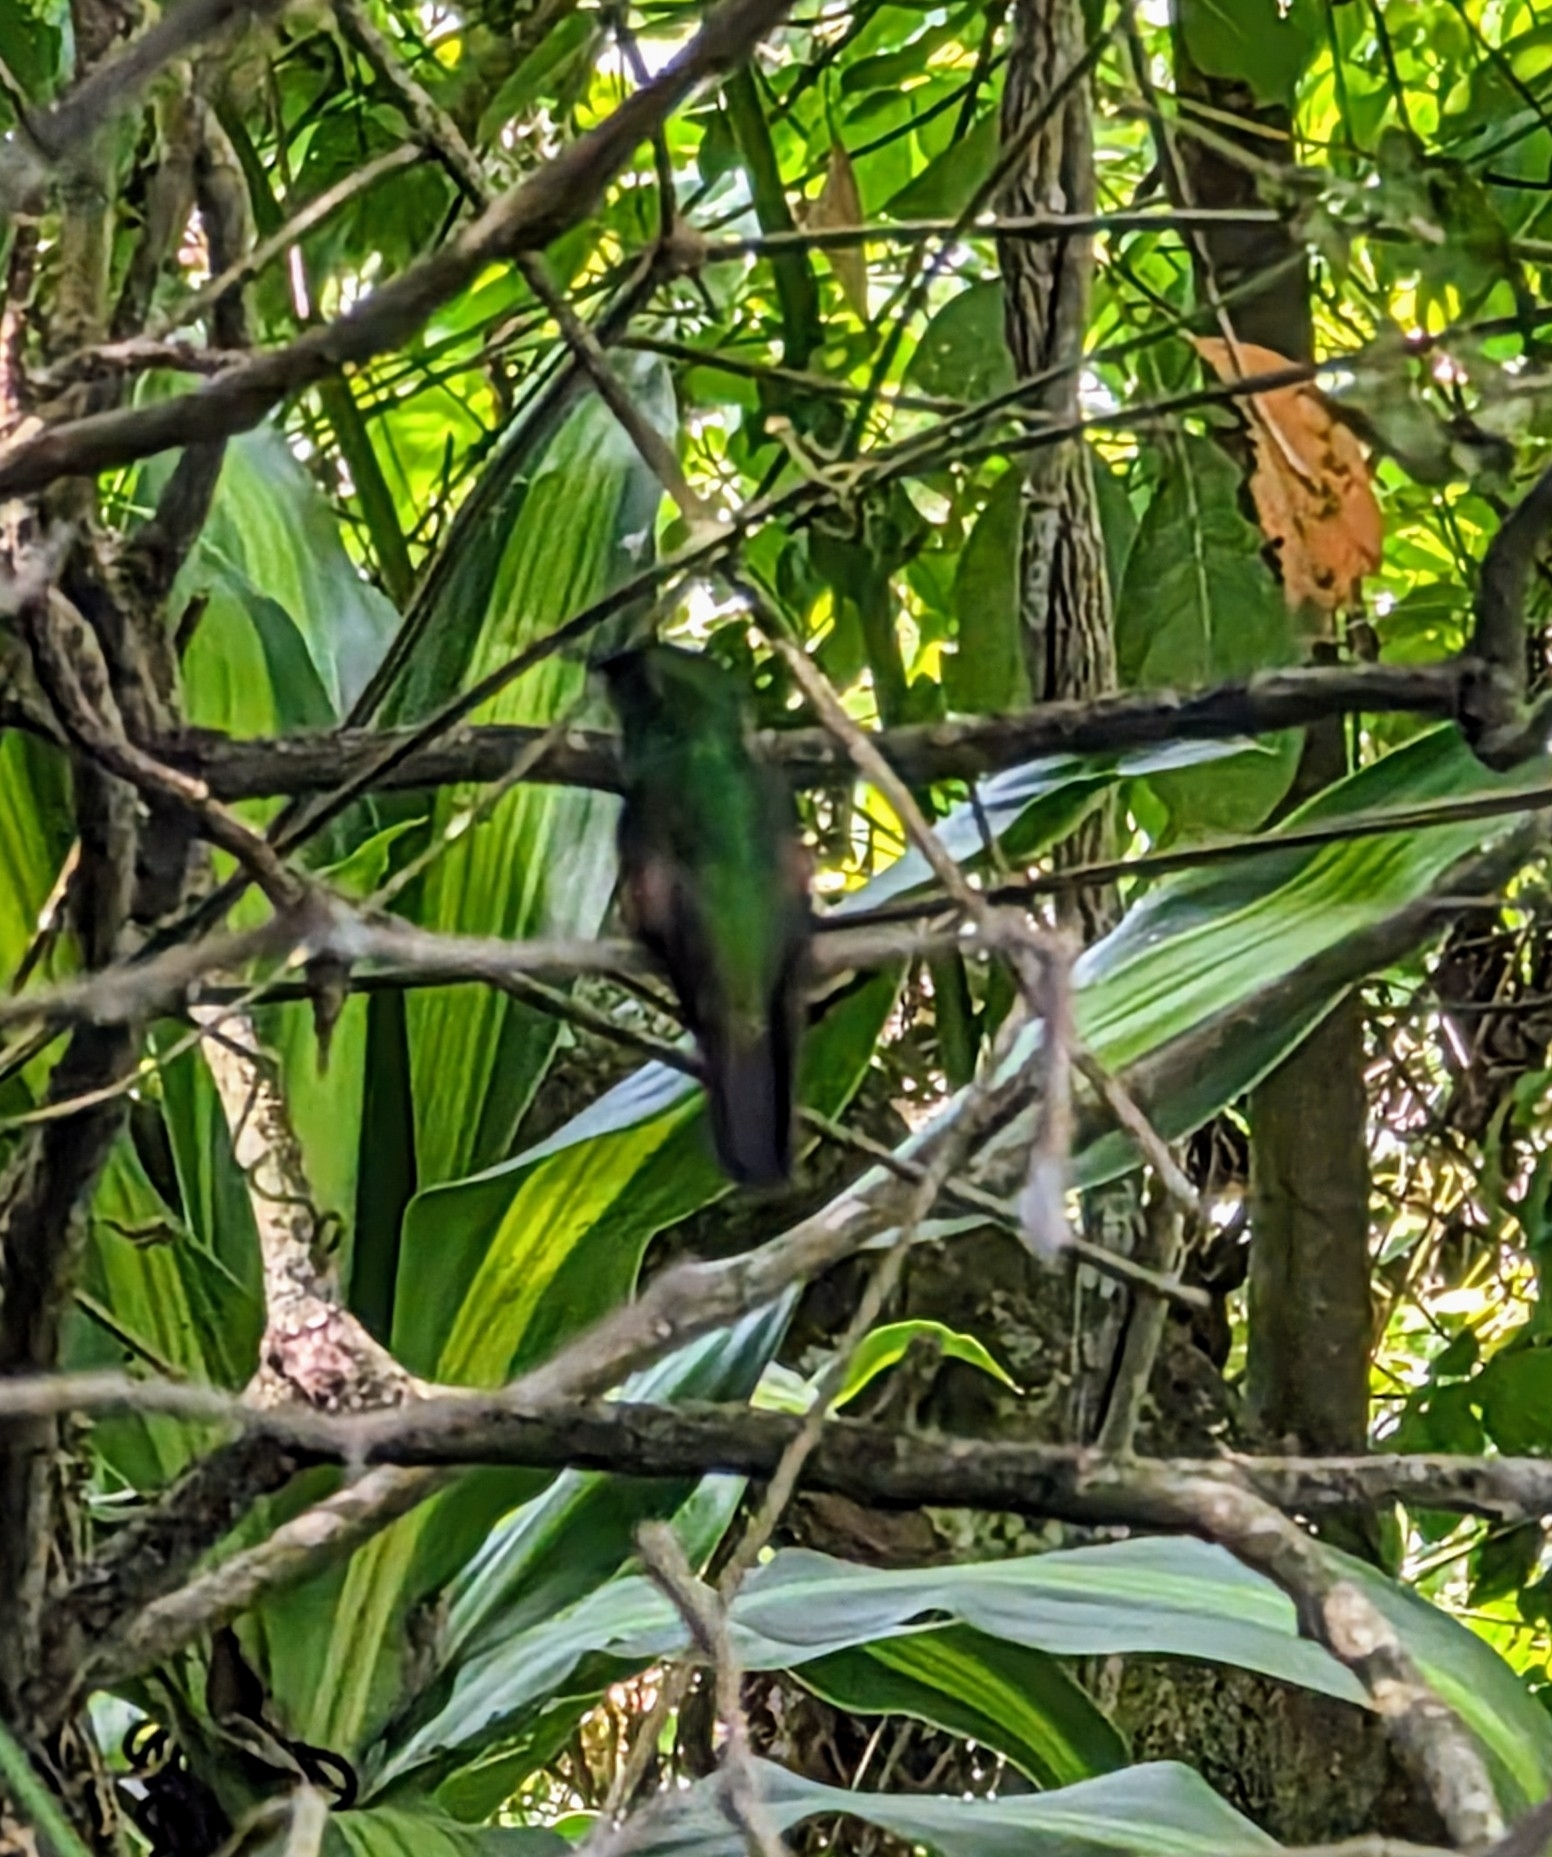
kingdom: Animalia
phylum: Chordata
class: Aves
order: Apodiformes
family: Trochilidae
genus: Eupherusa
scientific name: Eupherusa eximia
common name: Stripe-tailed hummingbird
